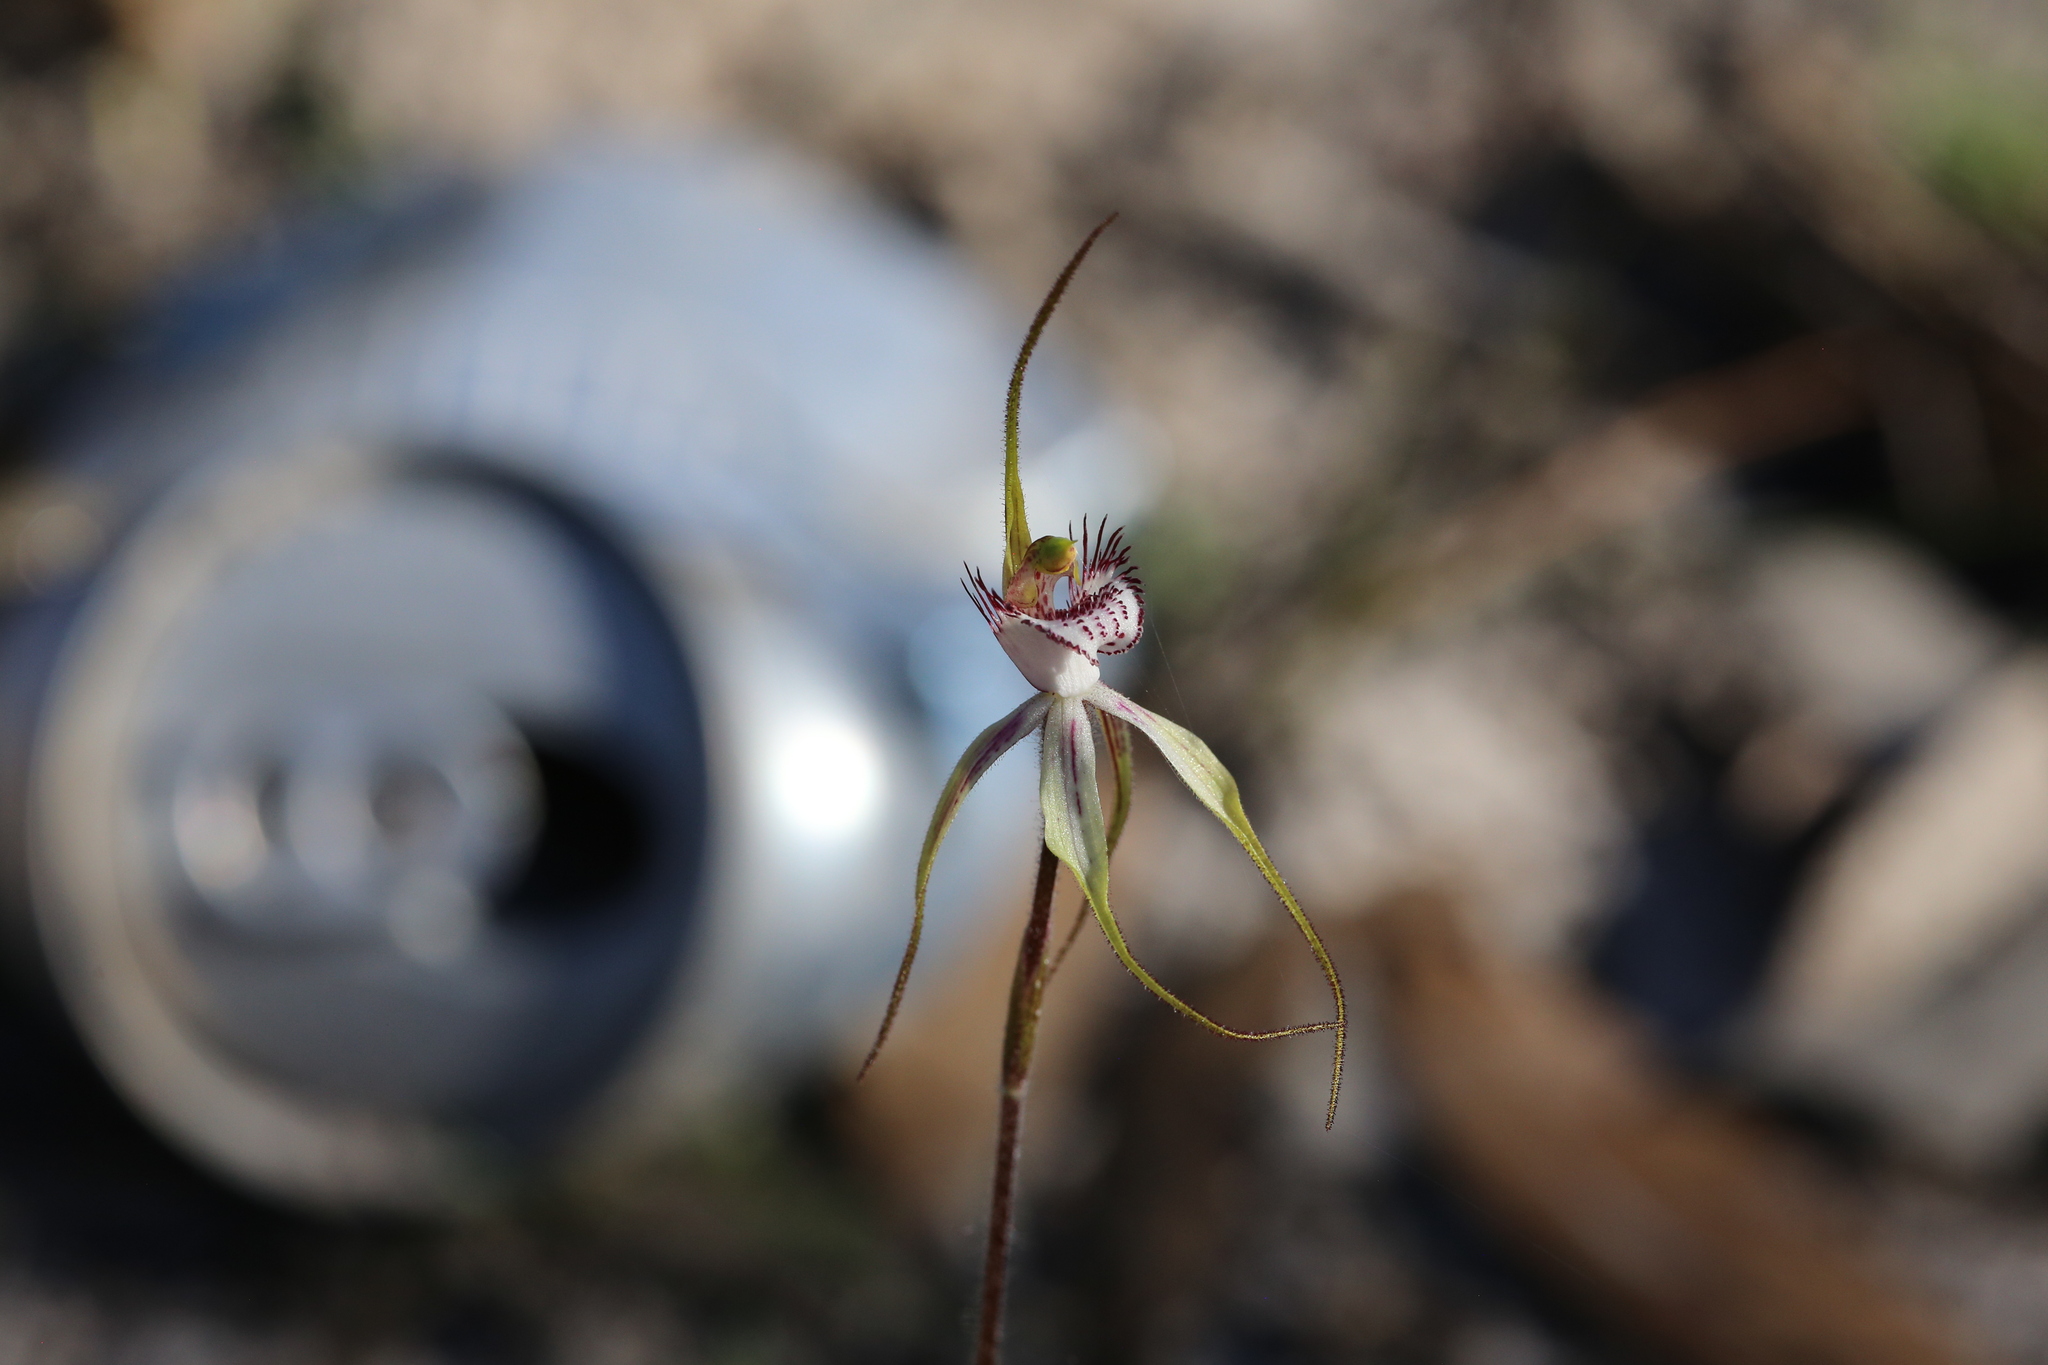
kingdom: Plantae
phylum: Tracheophyta
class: Liliopsida
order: Asparagales
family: Orchidaceae
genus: Caladenia
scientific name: Caladenia cruscula
